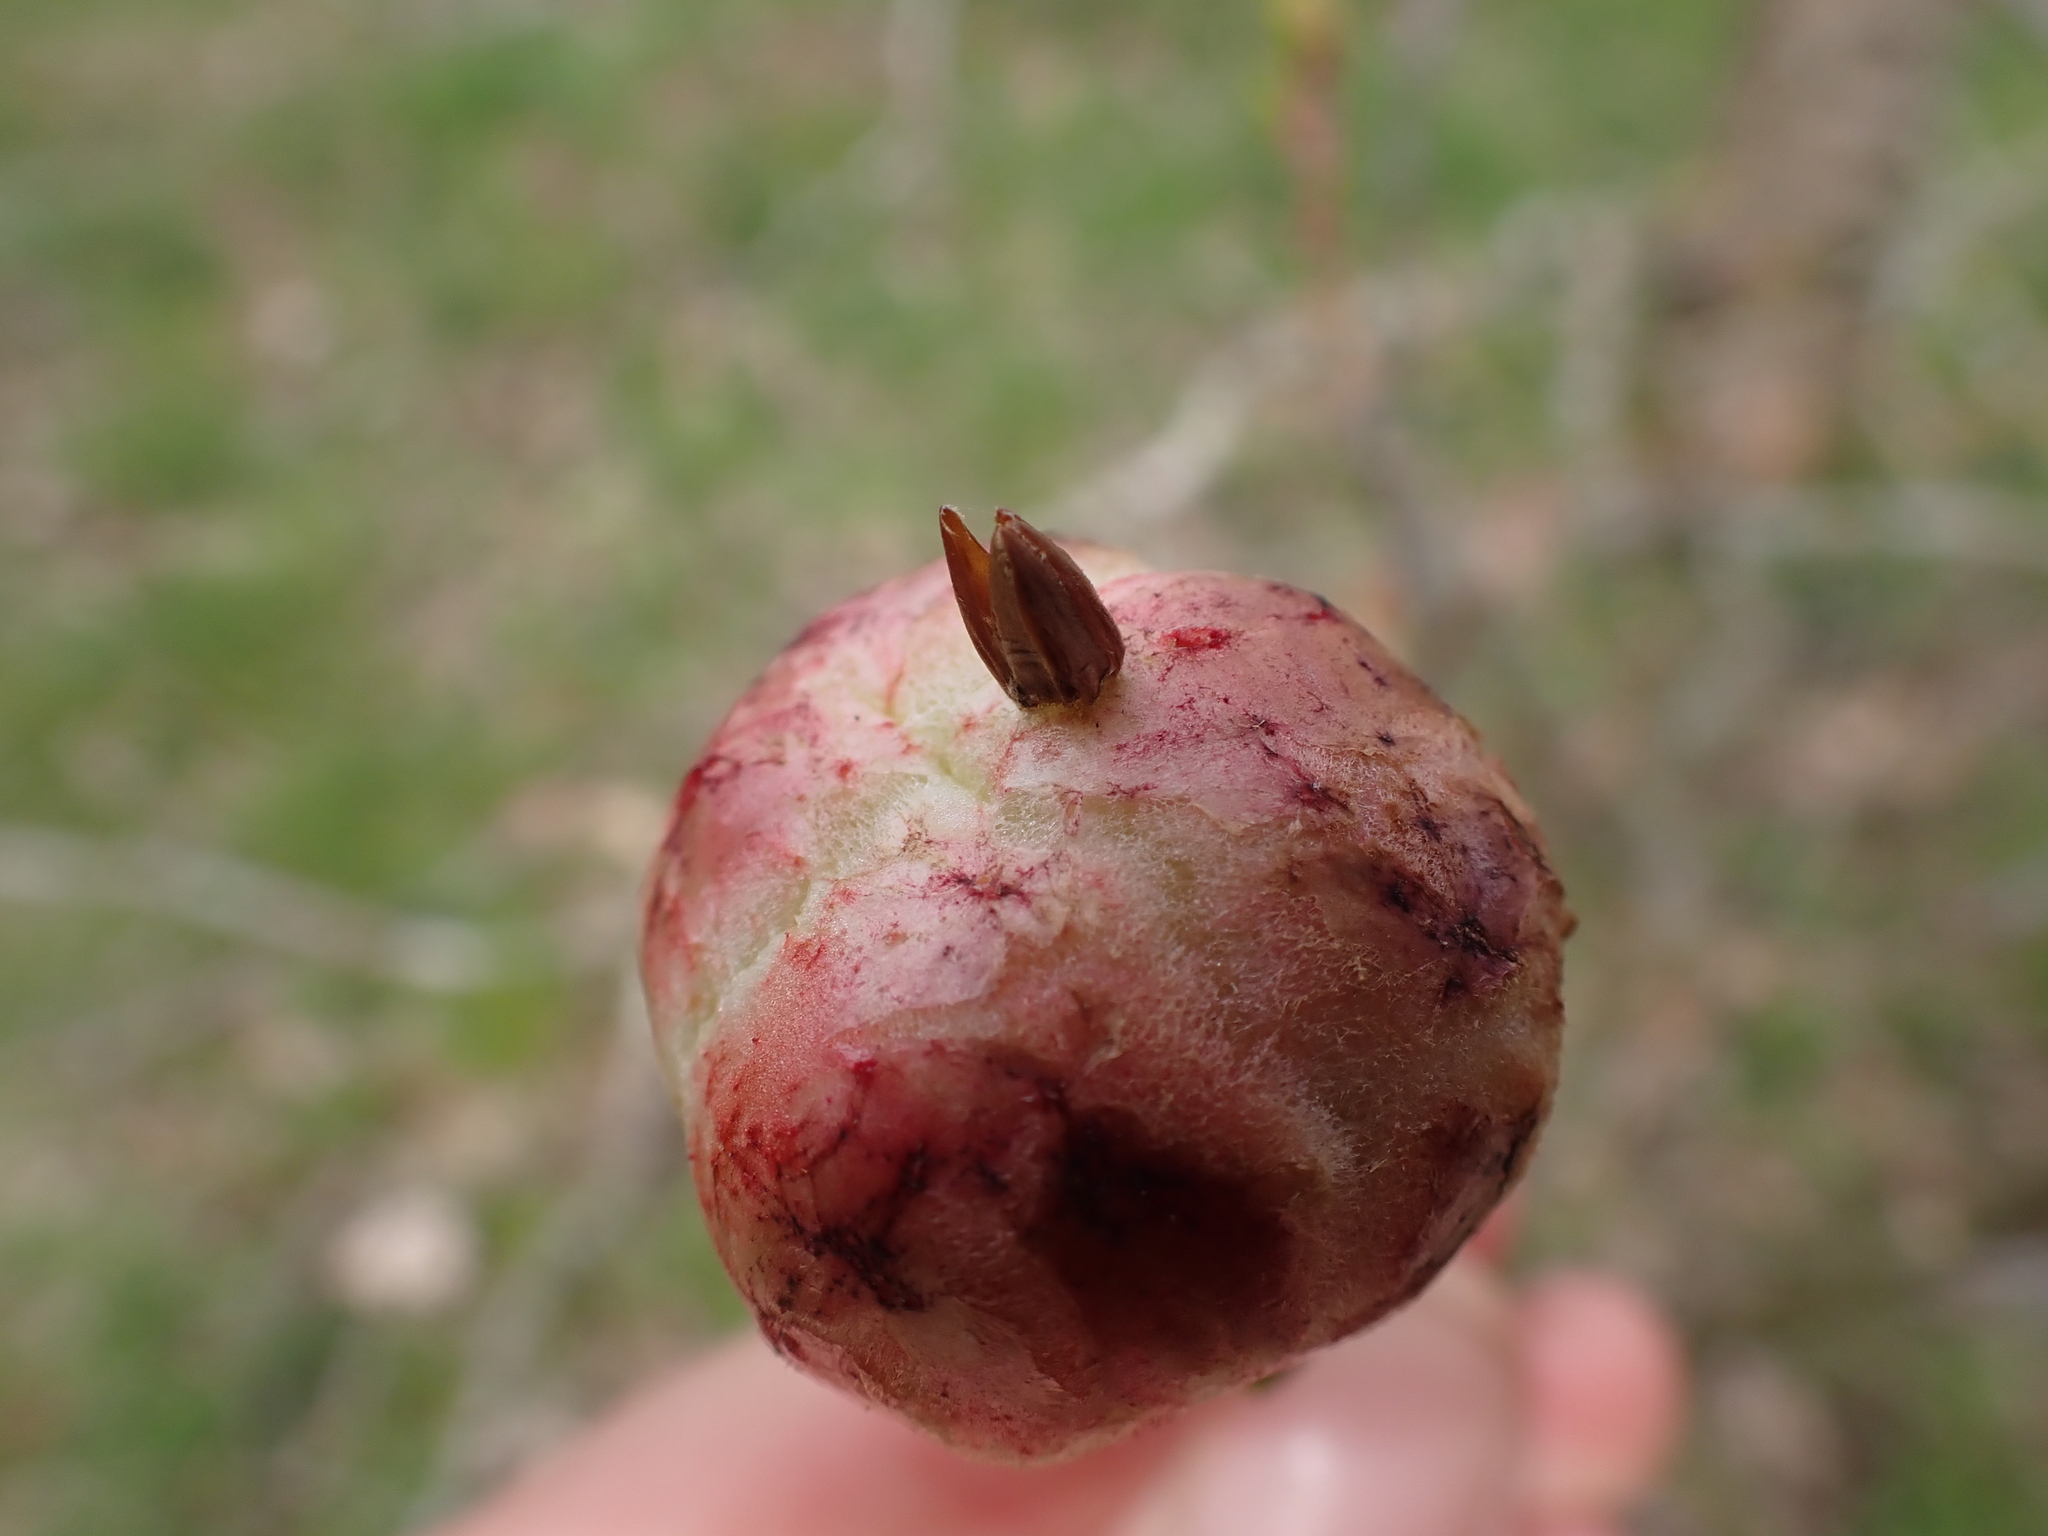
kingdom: Animalia
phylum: Arthropoda
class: Insecta
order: Hymenoptera
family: Cynipidae
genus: Biorhiza
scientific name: Biorhiza pallida
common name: Oak apple
